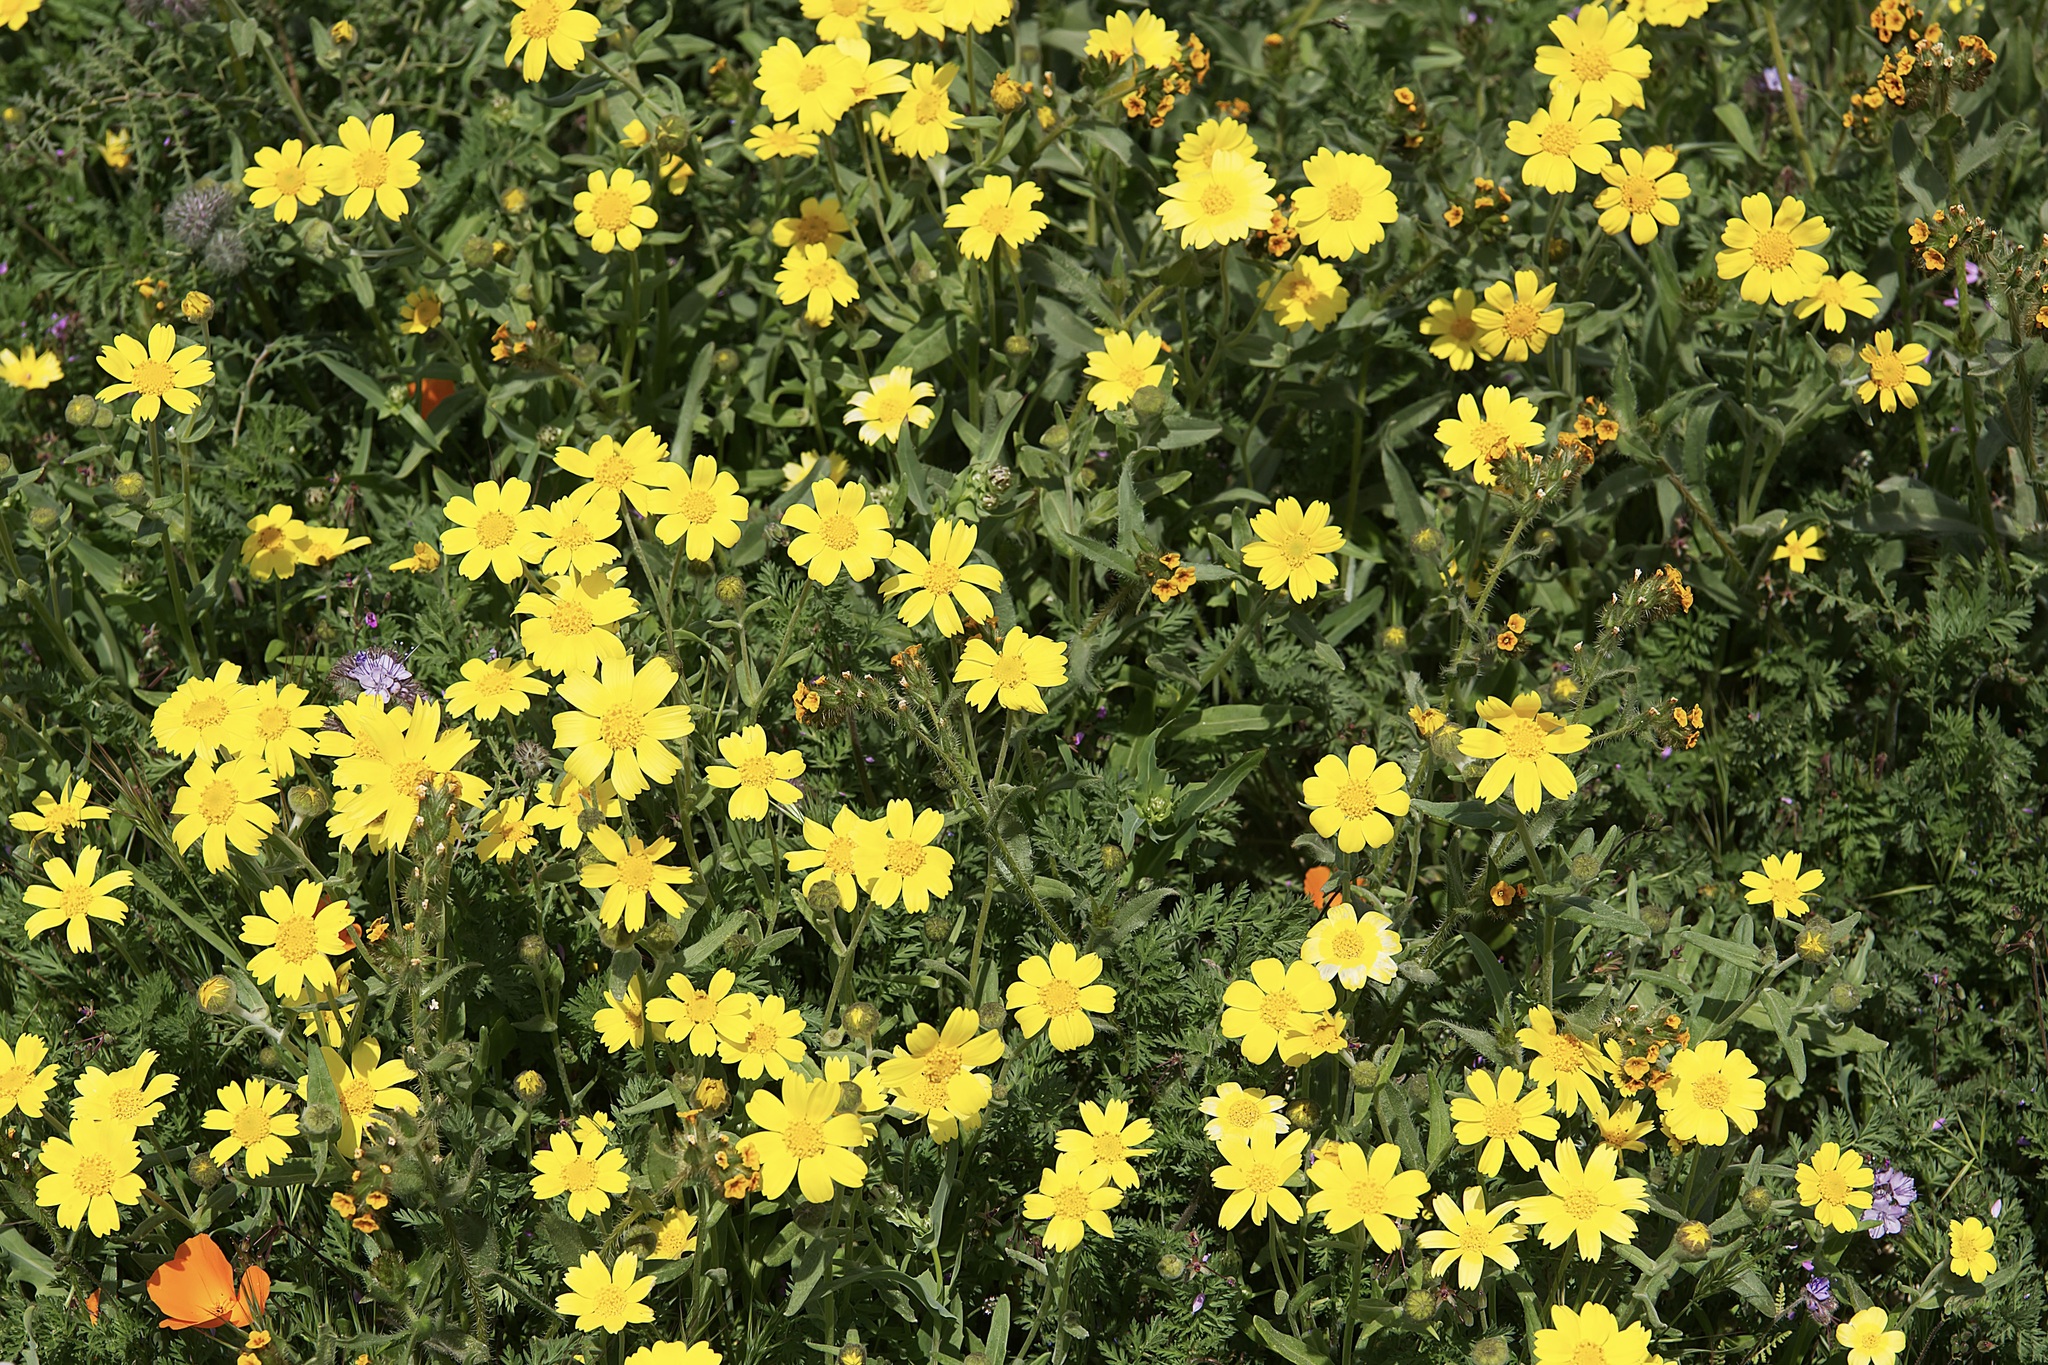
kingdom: Plantae
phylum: Tracheophyta
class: Magnoliopsida
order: Asterales
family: Asteraceae
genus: Monolopia
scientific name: Monolopia lanceolata
